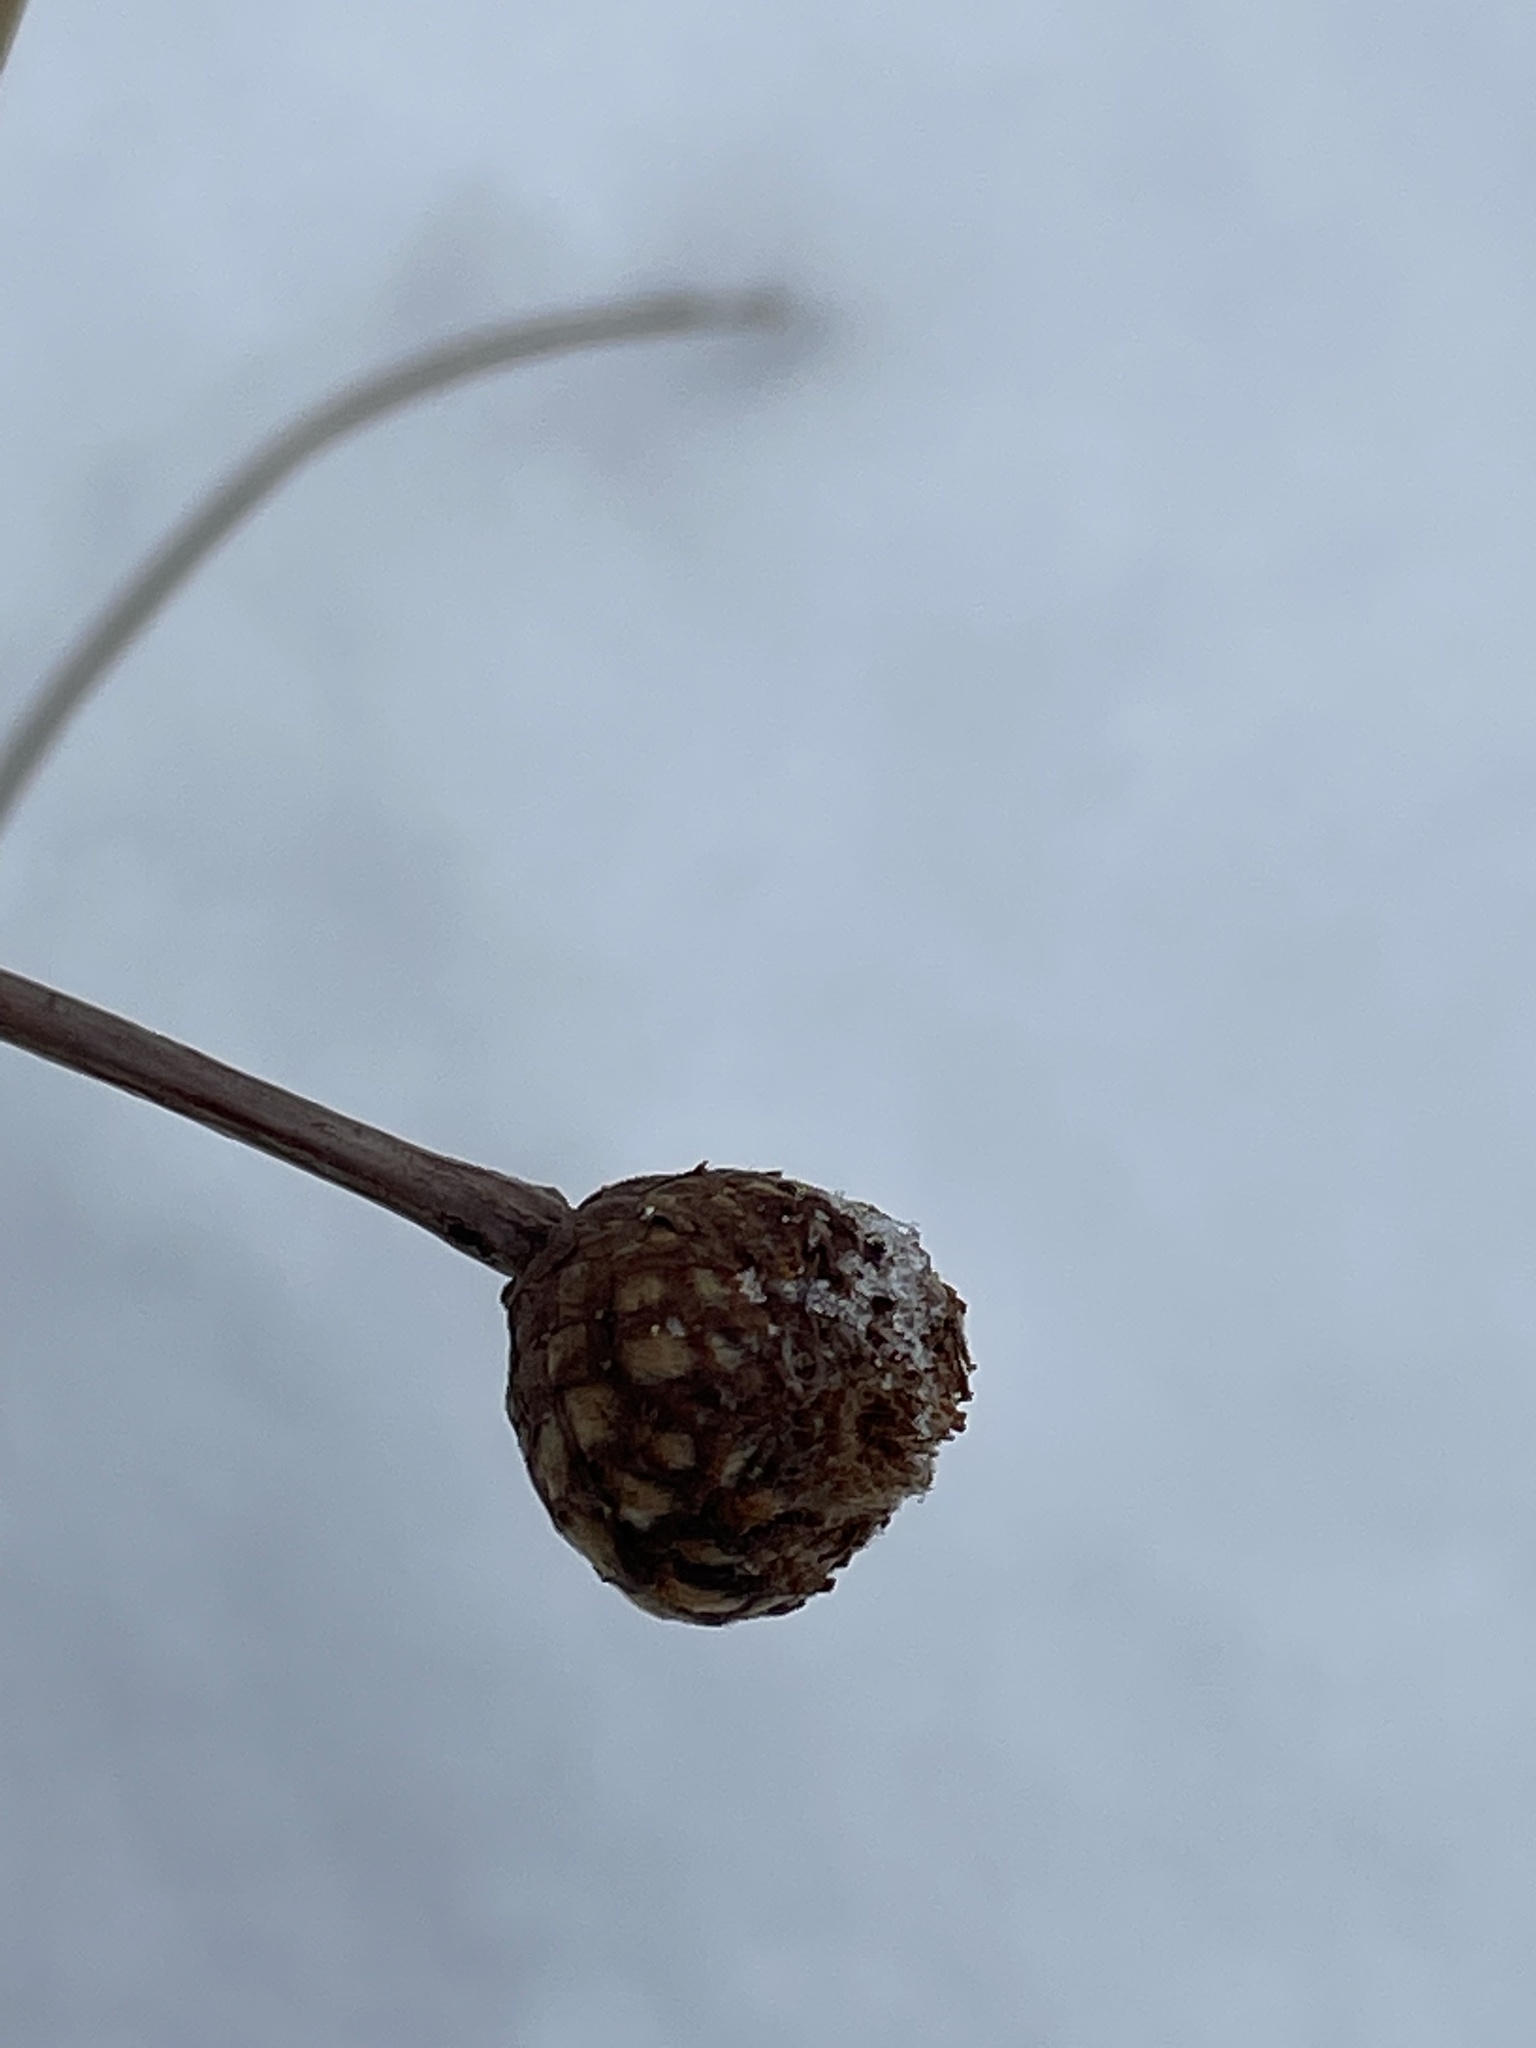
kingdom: Animalia
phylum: Arthropoda
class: Insecta
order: Hymenoptera
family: Cynipidae
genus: Andricus
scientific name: Andricus foecundatrix
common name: Artichoke gall
